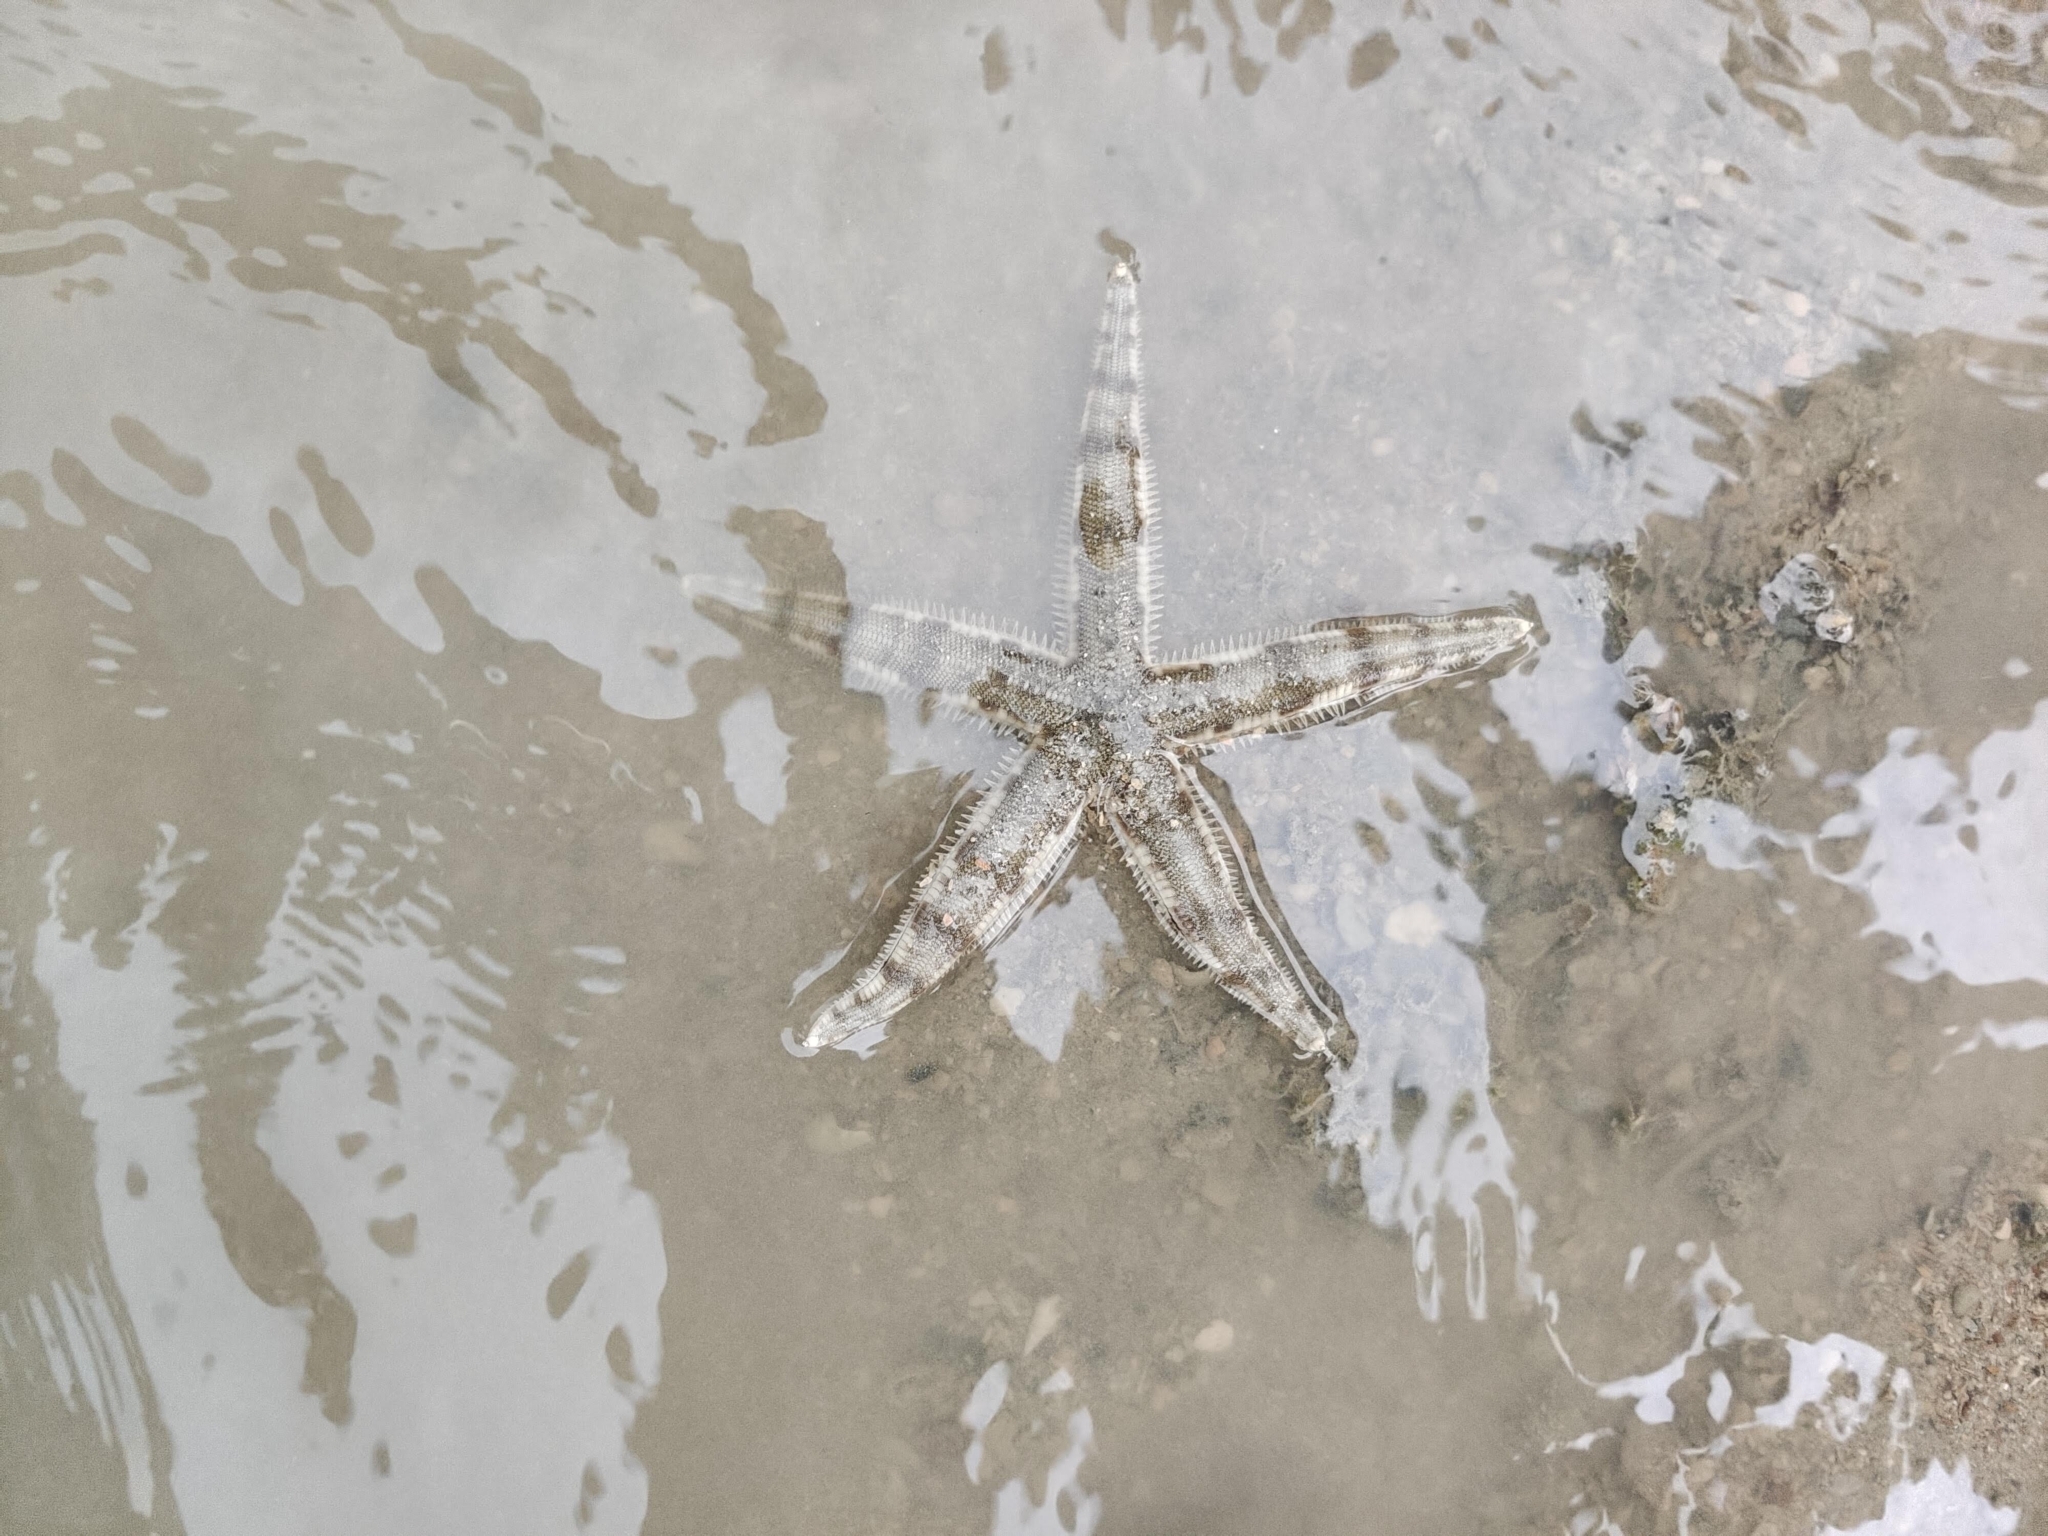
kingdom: Animalia
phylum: Echinodermata
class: Asteroidea
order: Valvatida
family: Archasteridae
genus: Archaster
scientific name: Archaster typicus
